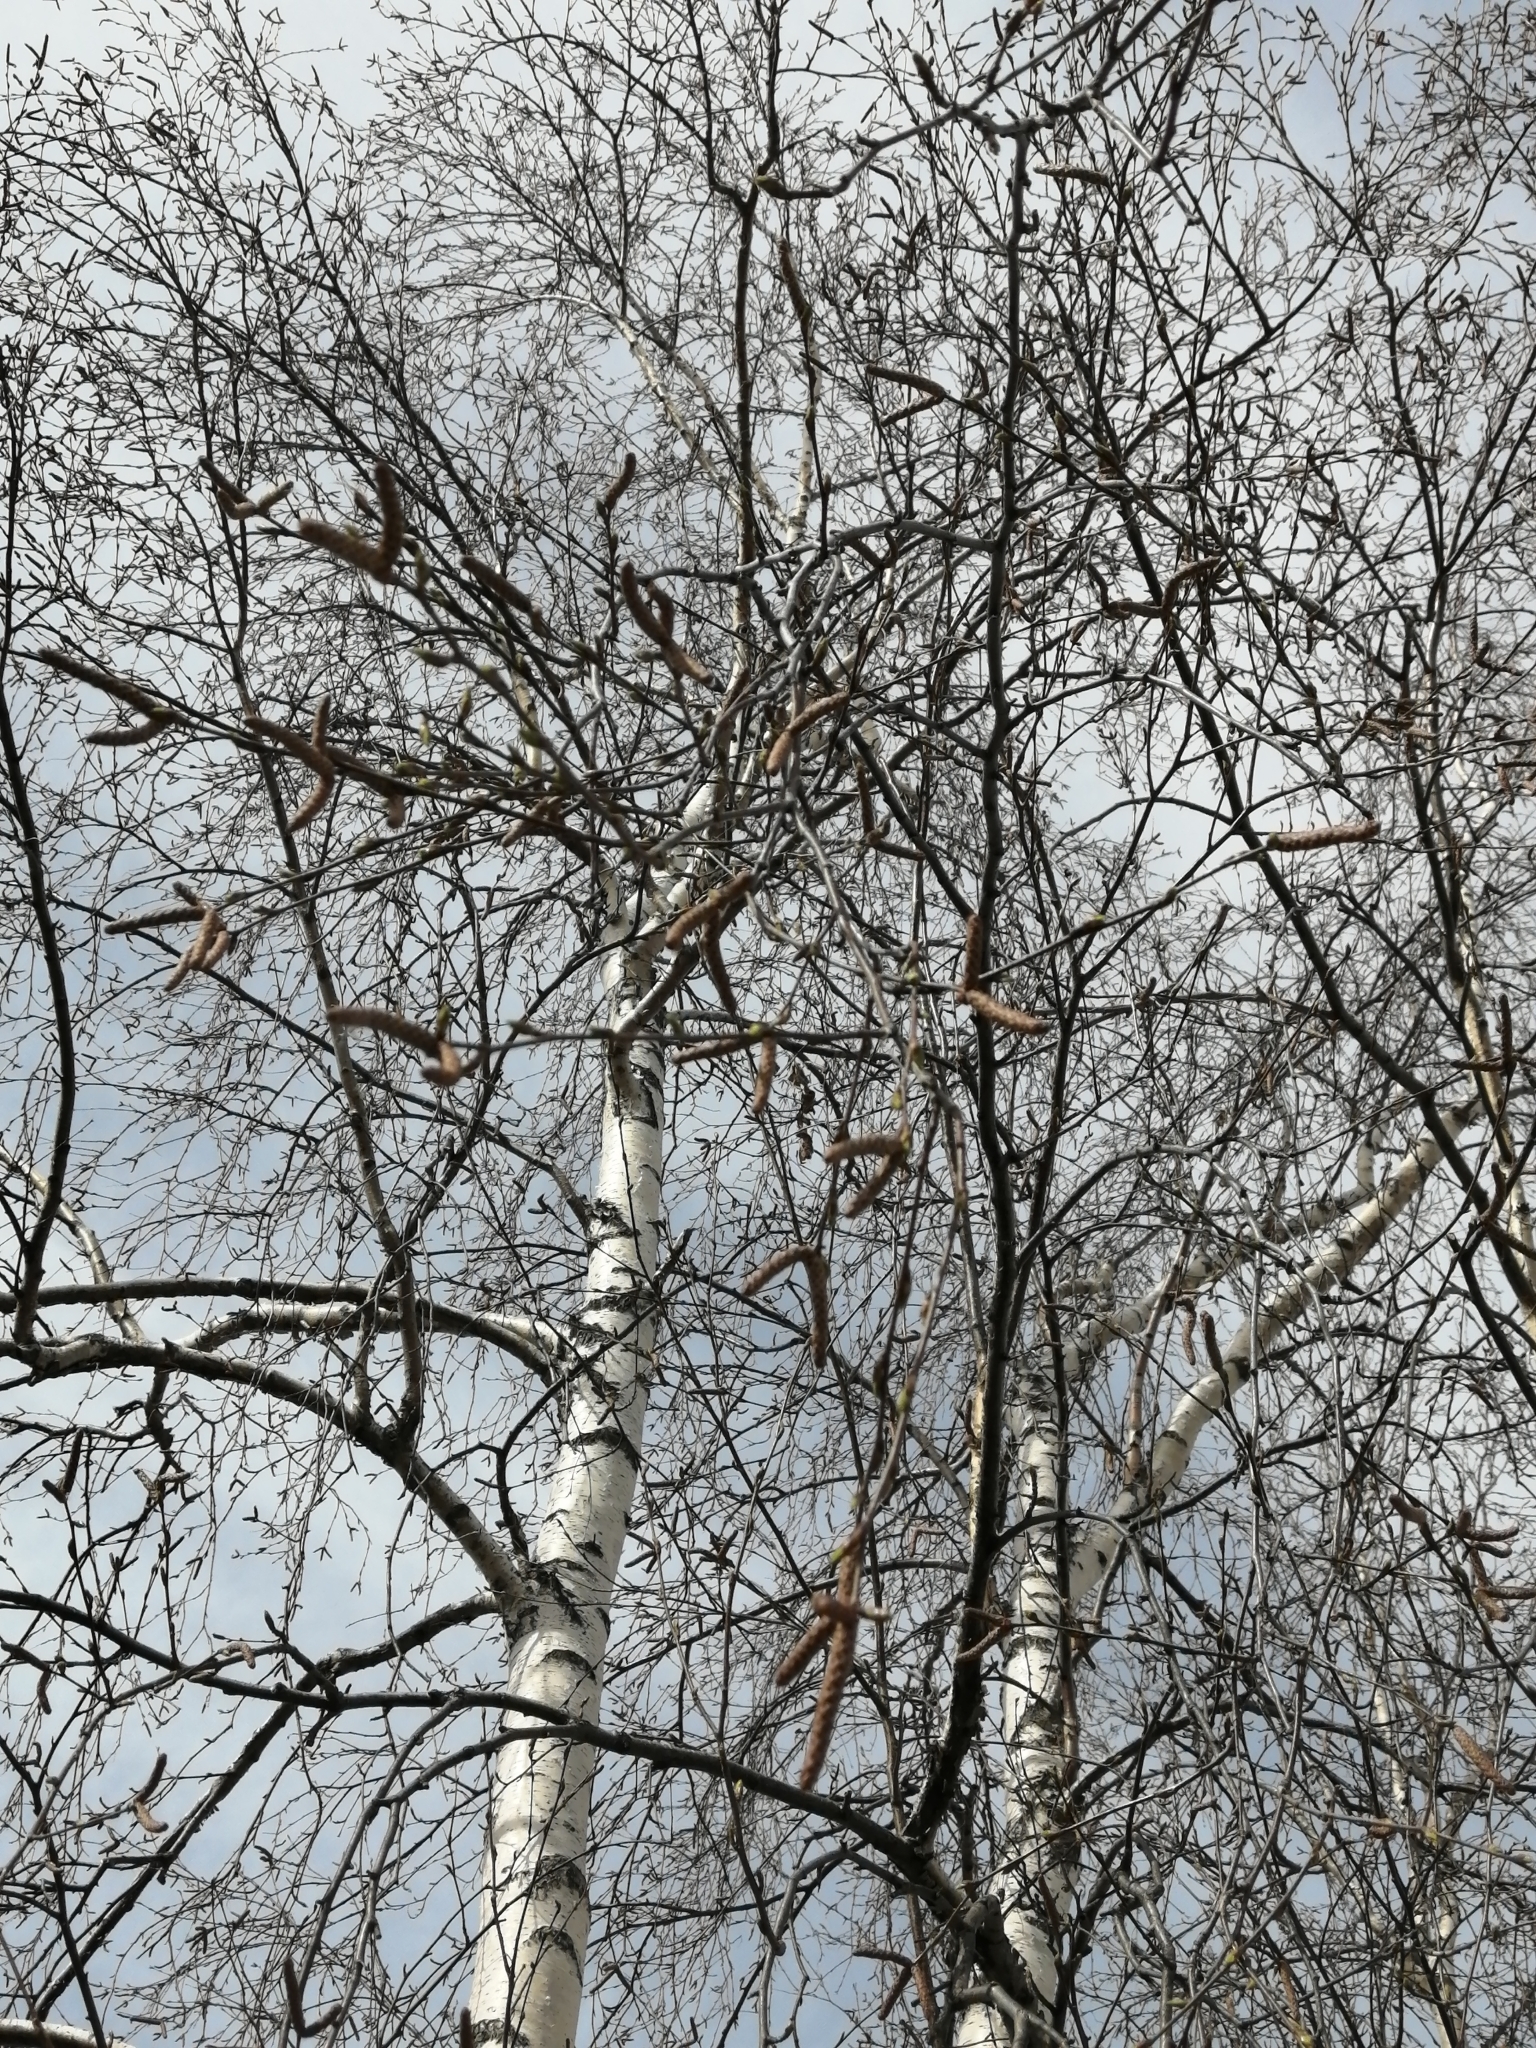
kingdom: Plantae
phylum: Tracheophyta
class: Magnoliopsida
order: Fagales
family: Betulaceae
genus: Betula
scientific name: Betula pubescens
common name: Downy birch
